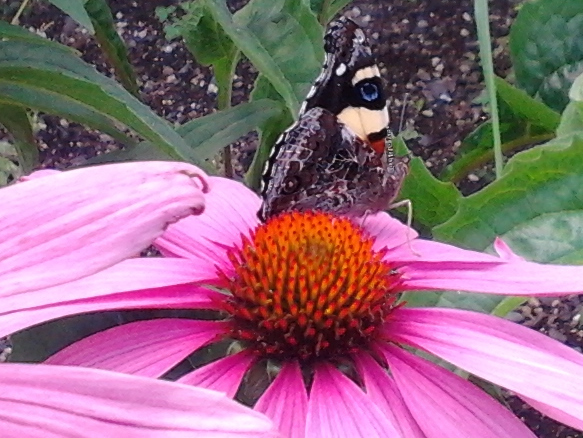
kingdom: Animalia
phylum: Arthropoda
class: Insecta
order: Lepidoptera
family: Nymphalidae
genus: Vanessa
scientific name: Vanessa itea
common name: Yellow admiral
